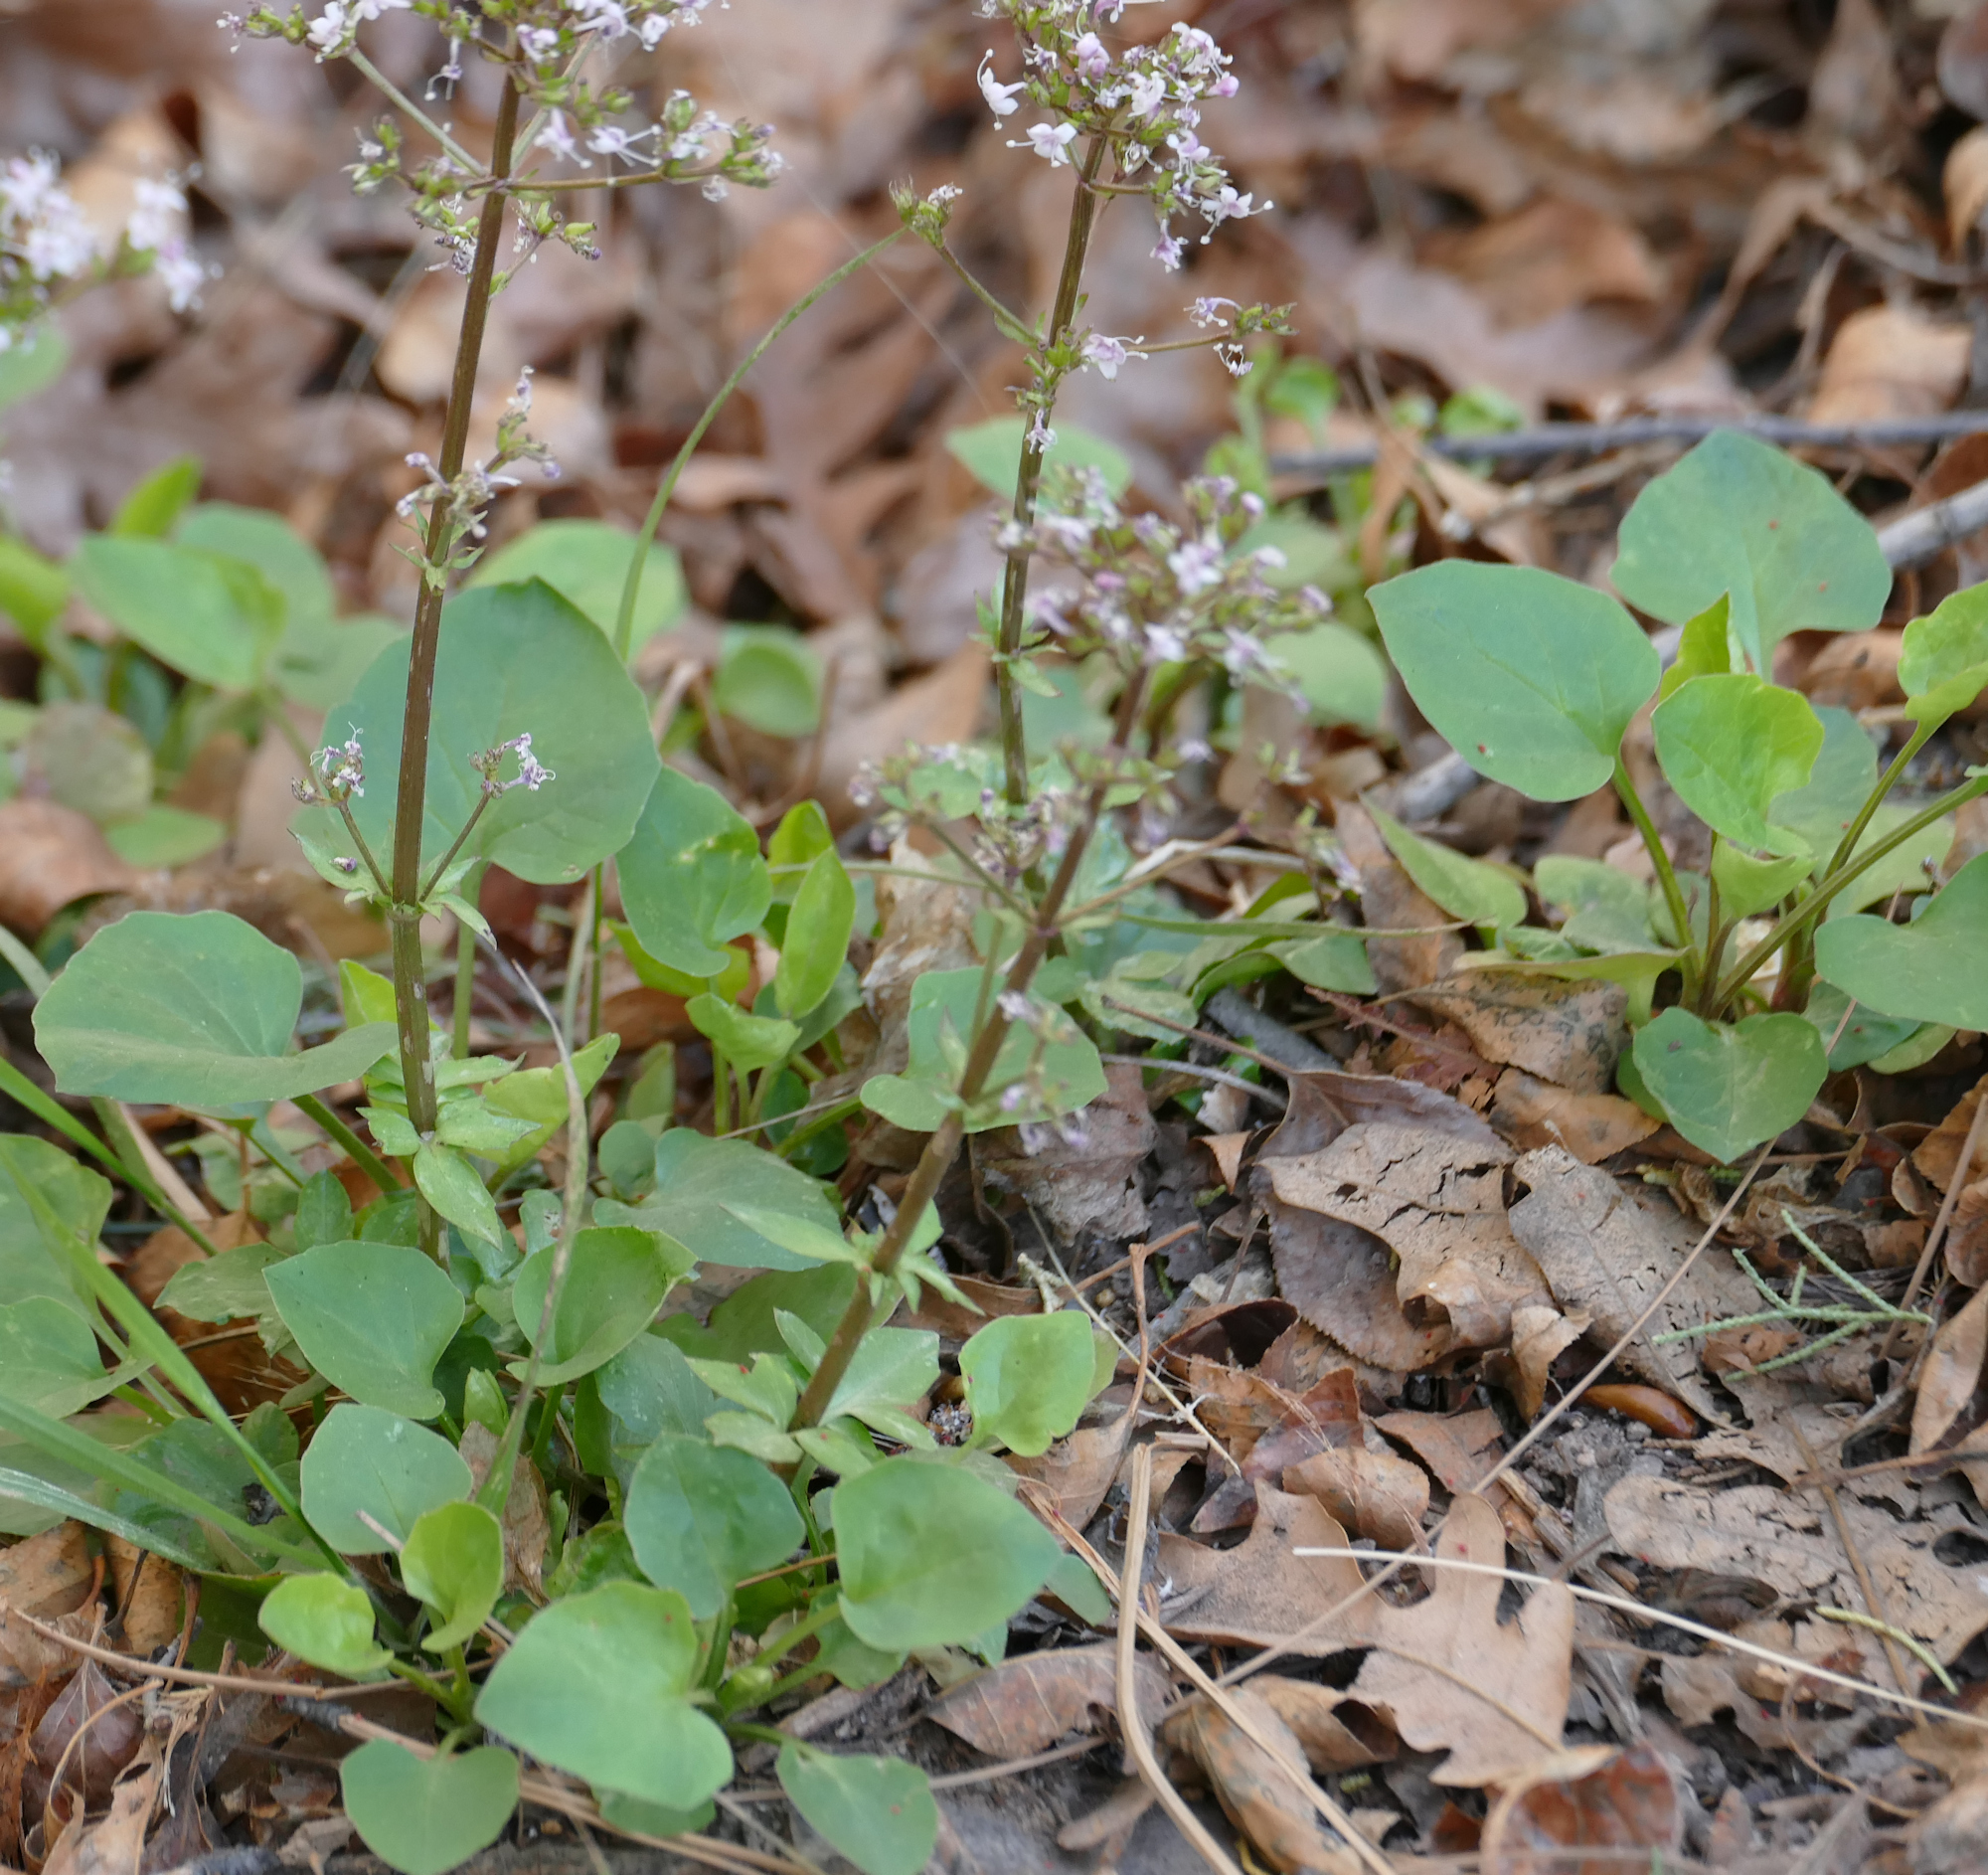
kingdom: Plantae
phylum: Tracheophyta
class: Magnoliopsida
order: Dipsacales
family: Caprifoliaceae
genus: Valeriana
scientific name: Valeriana arizonica
